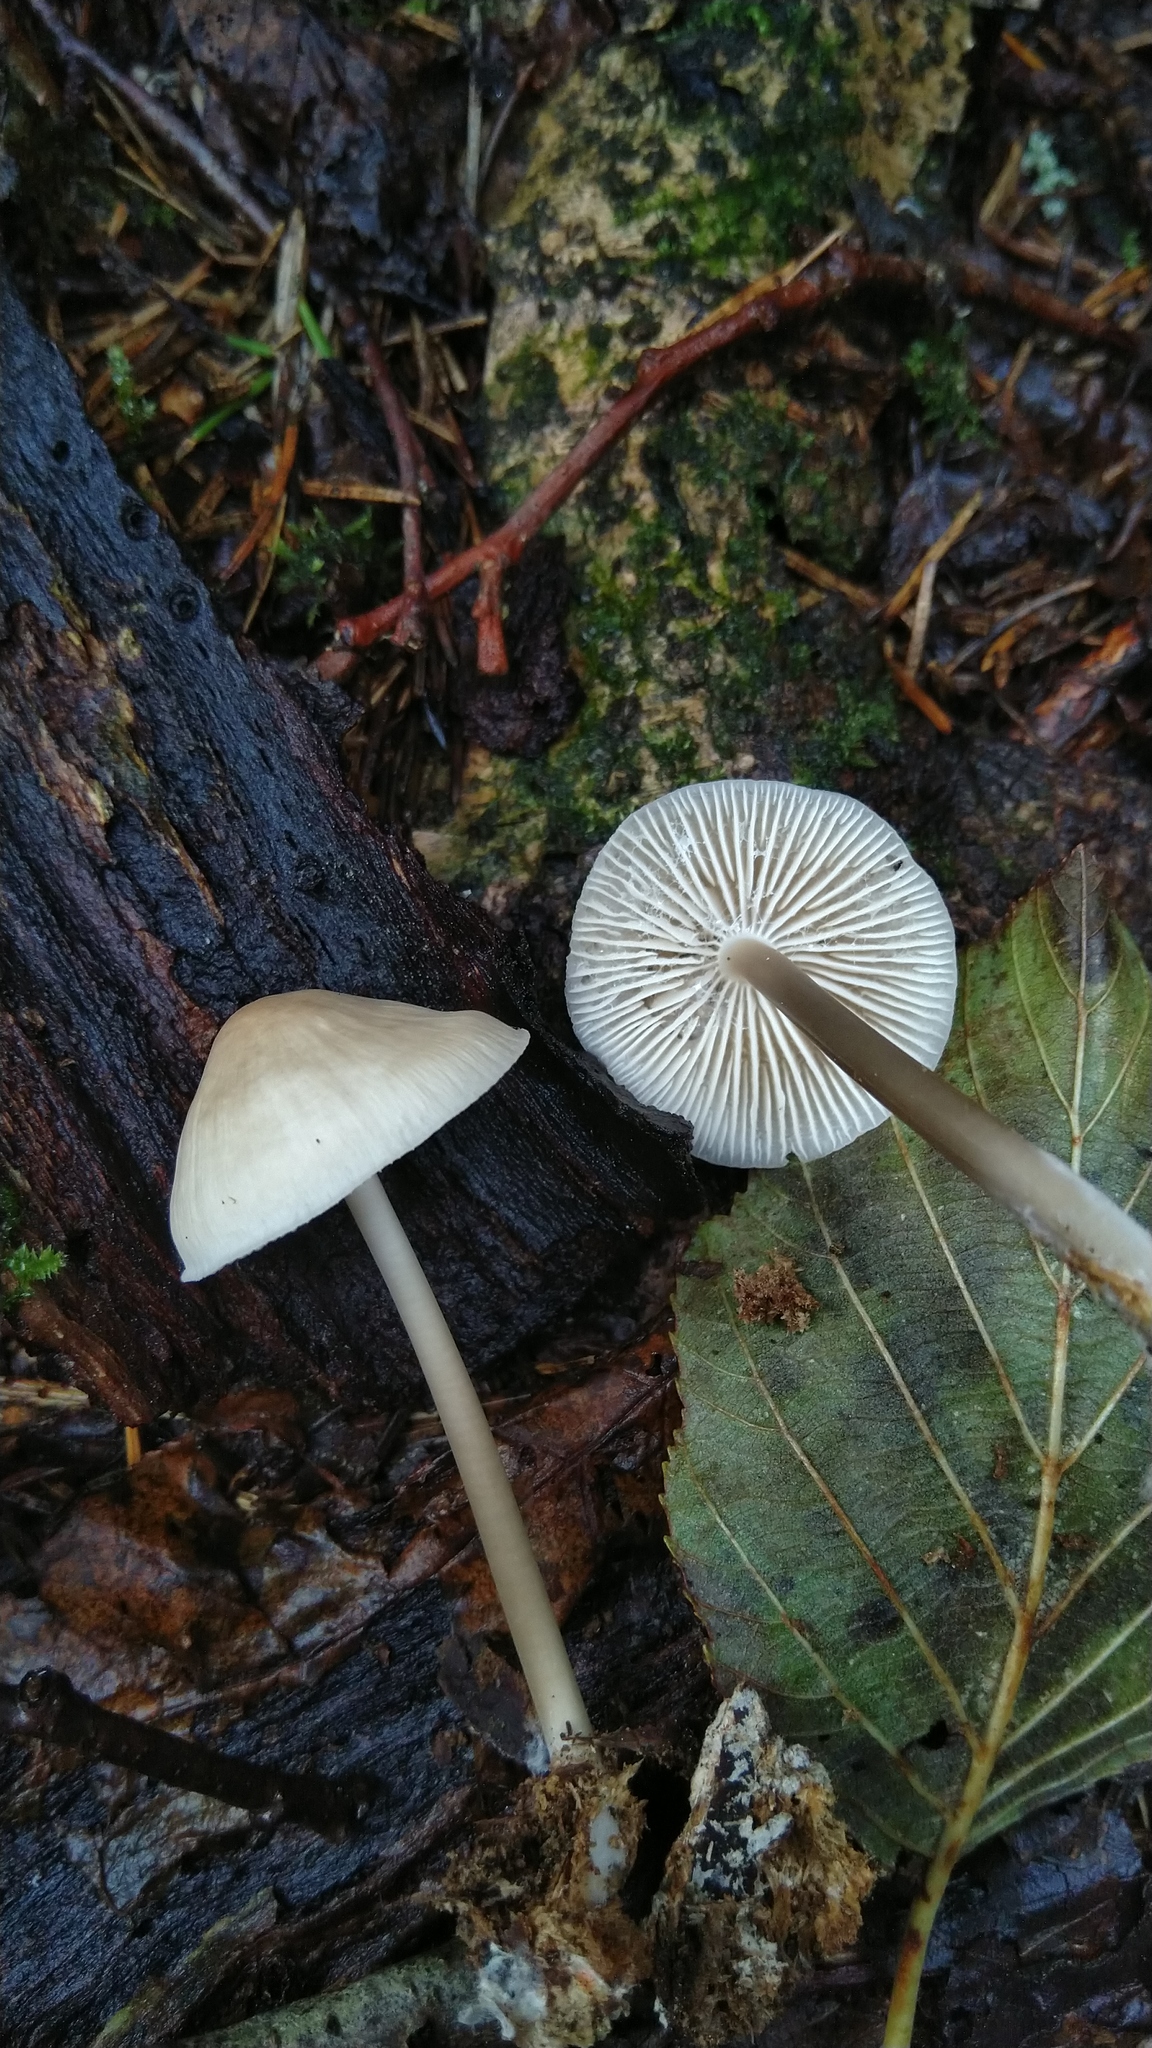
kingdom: Fungi
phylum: Basidiomycota
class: Agaricomycetes
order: Agaricales
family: Mycenaceae
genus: Mycena
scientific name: Mycena galericulata
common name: Bonnet mycena
